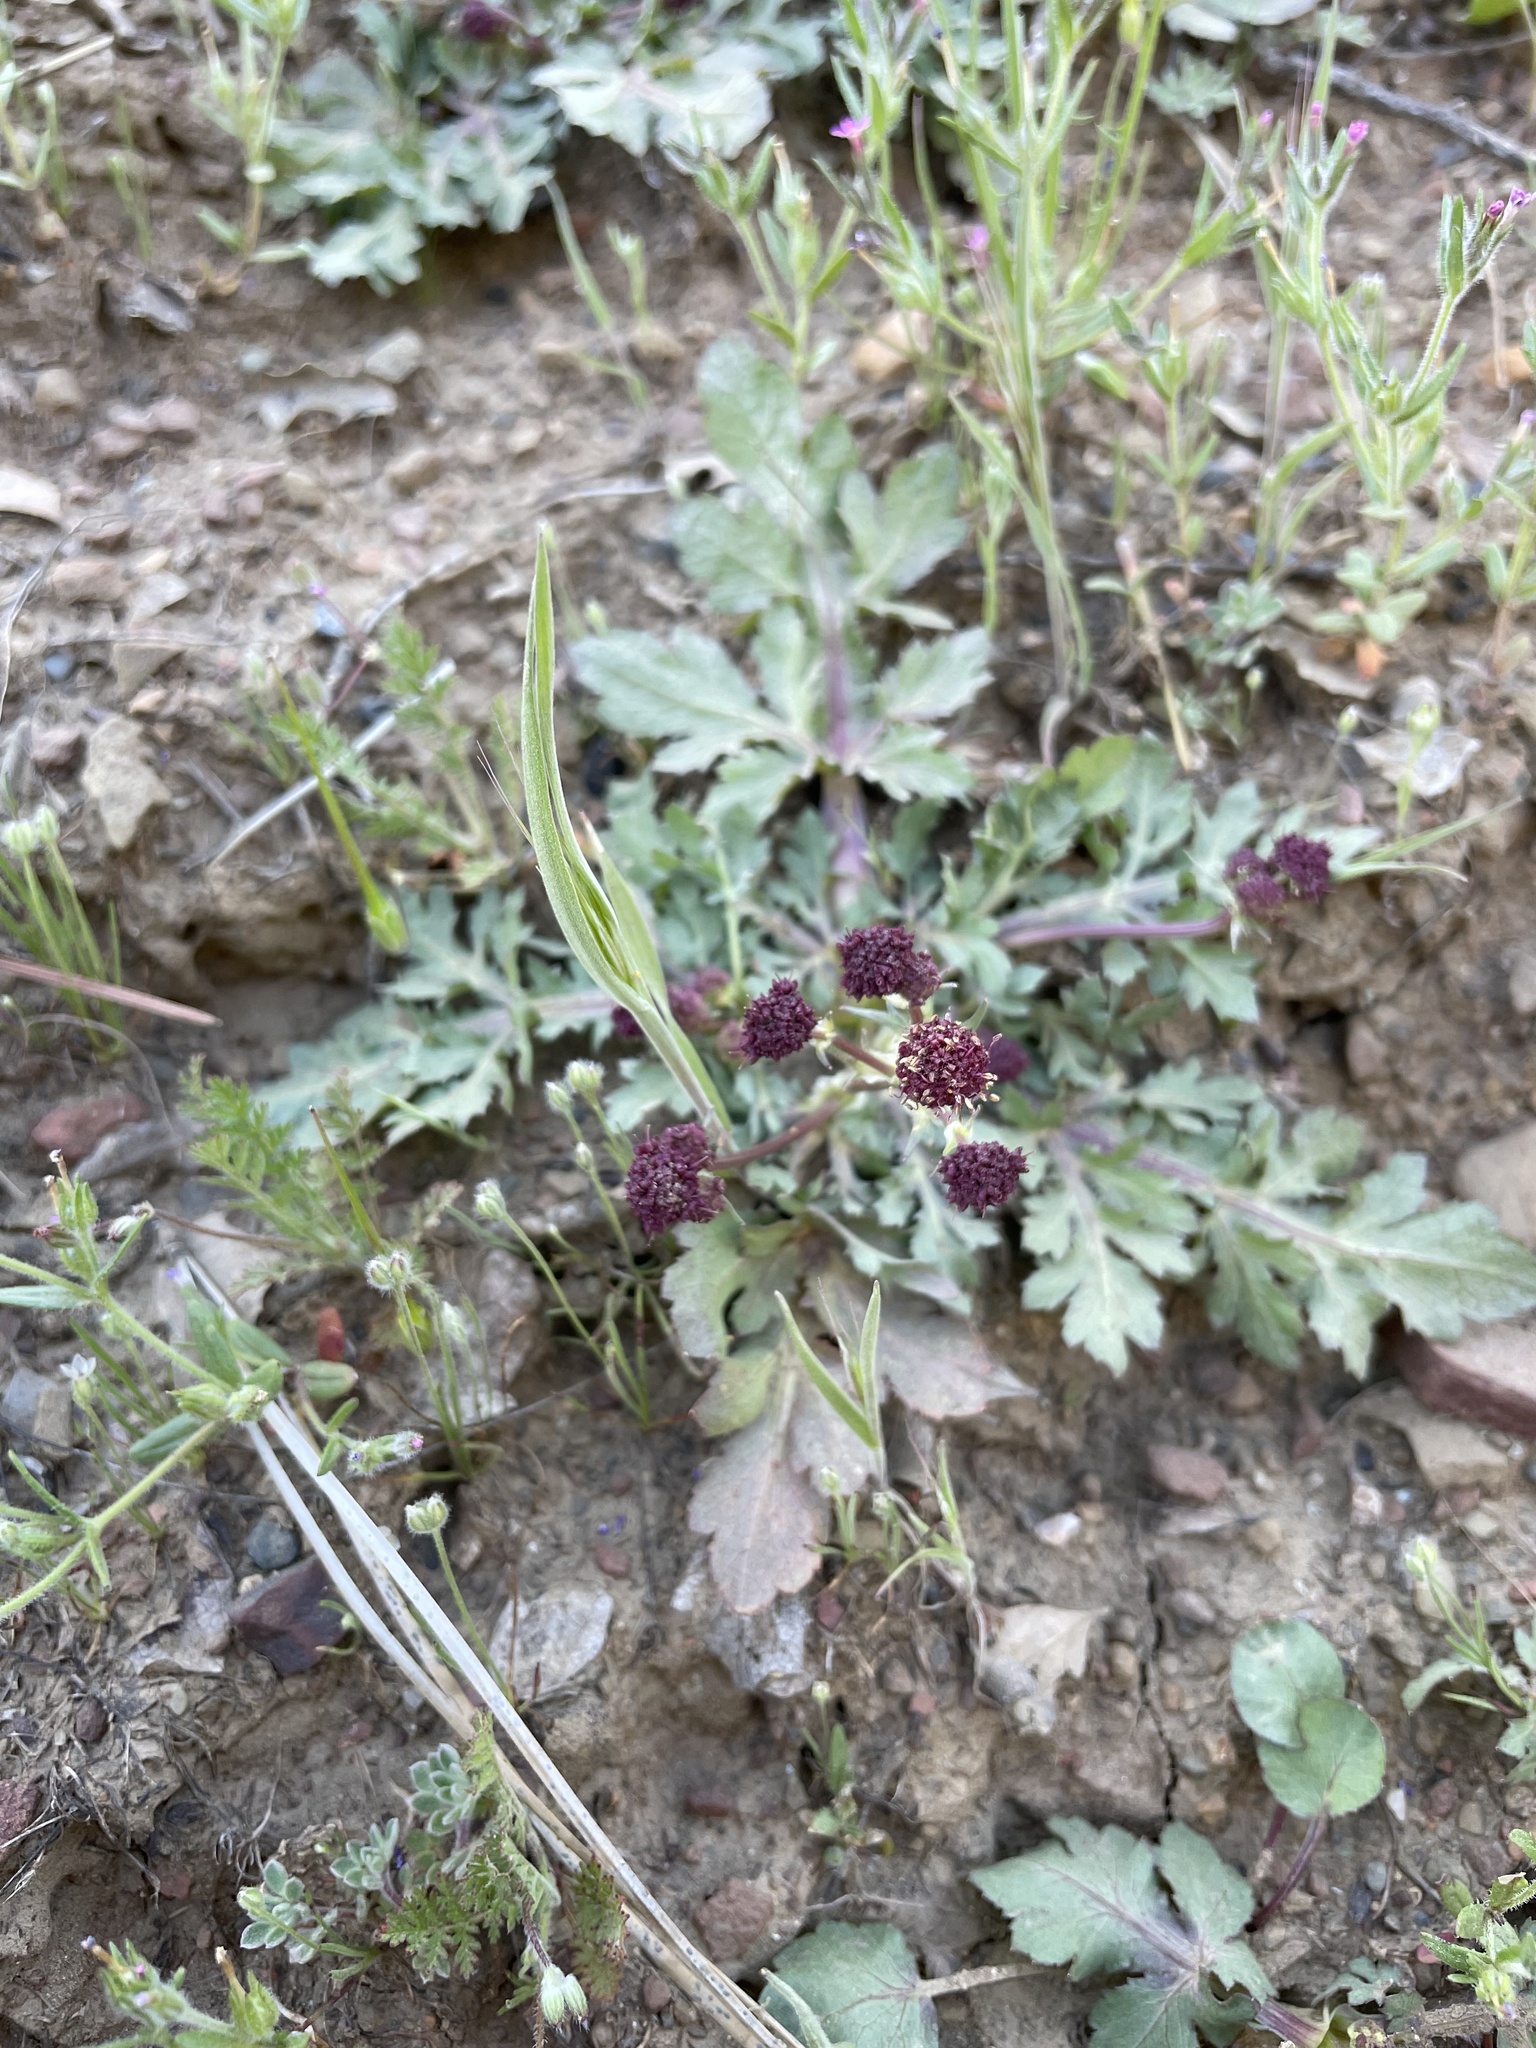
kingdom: Plantae
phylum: Tracheophyta
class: Magnoliopsida
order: Apiales
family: Apiaceae
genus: Sanicula
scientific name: Sanicula bipinnatifida
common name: Shoe-buttons
